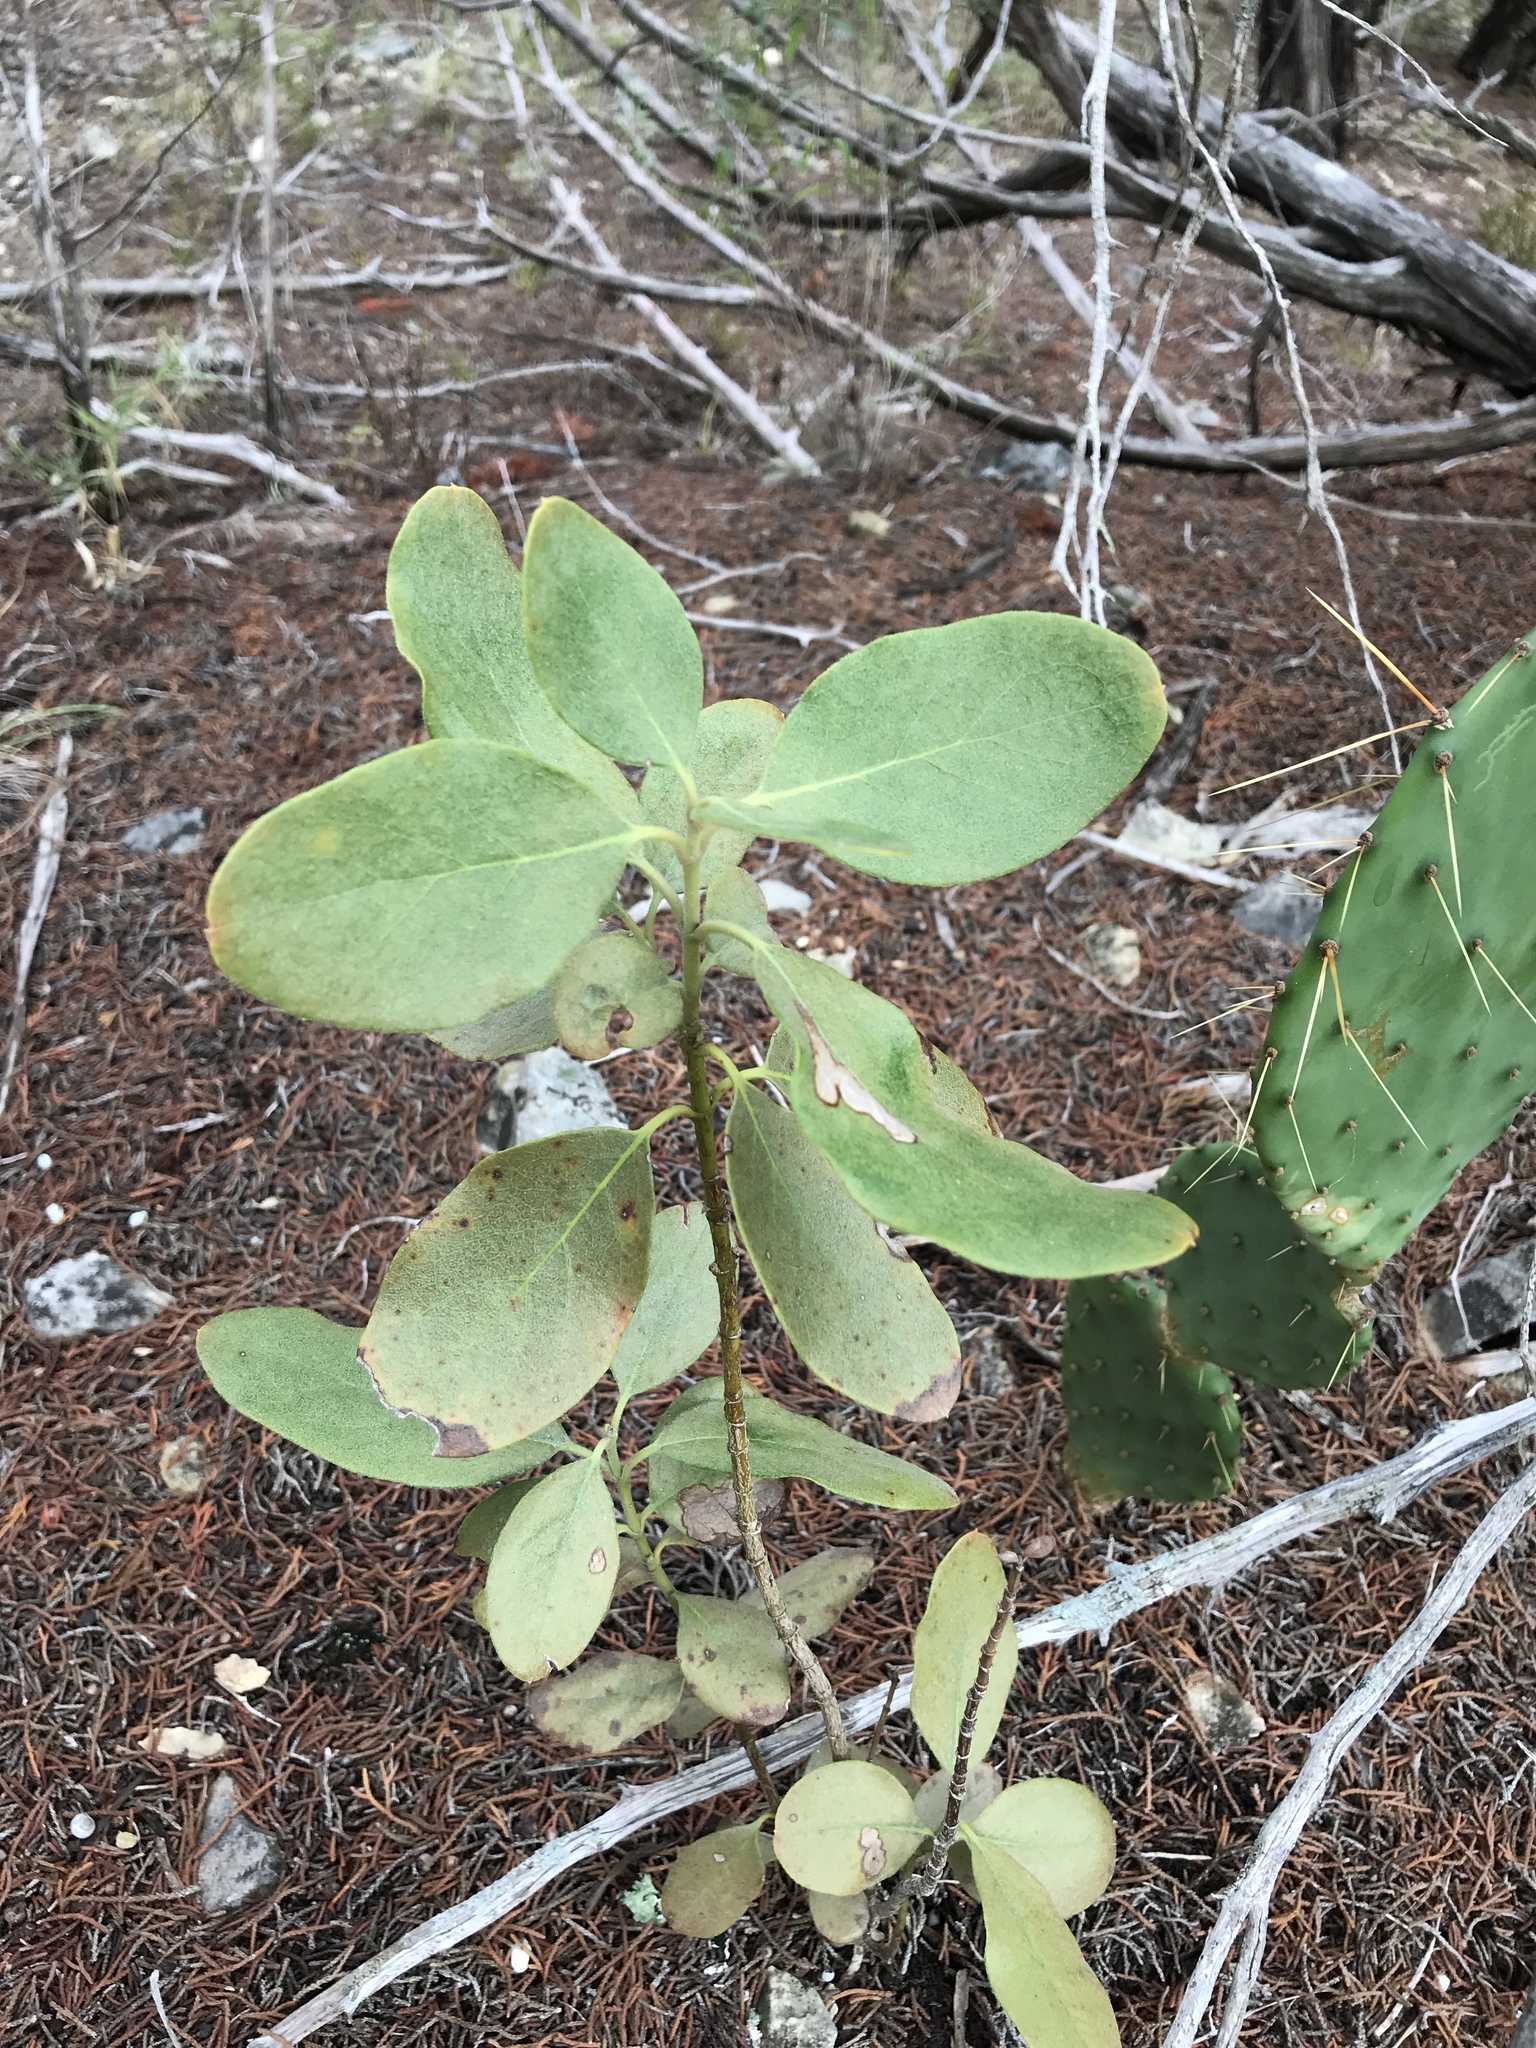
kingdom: Plantae
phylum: Tracheophyta
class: Magnoliopsida
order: Garryales
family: Garryaceae
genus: Garrya
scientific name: Garrya lindheimeri
